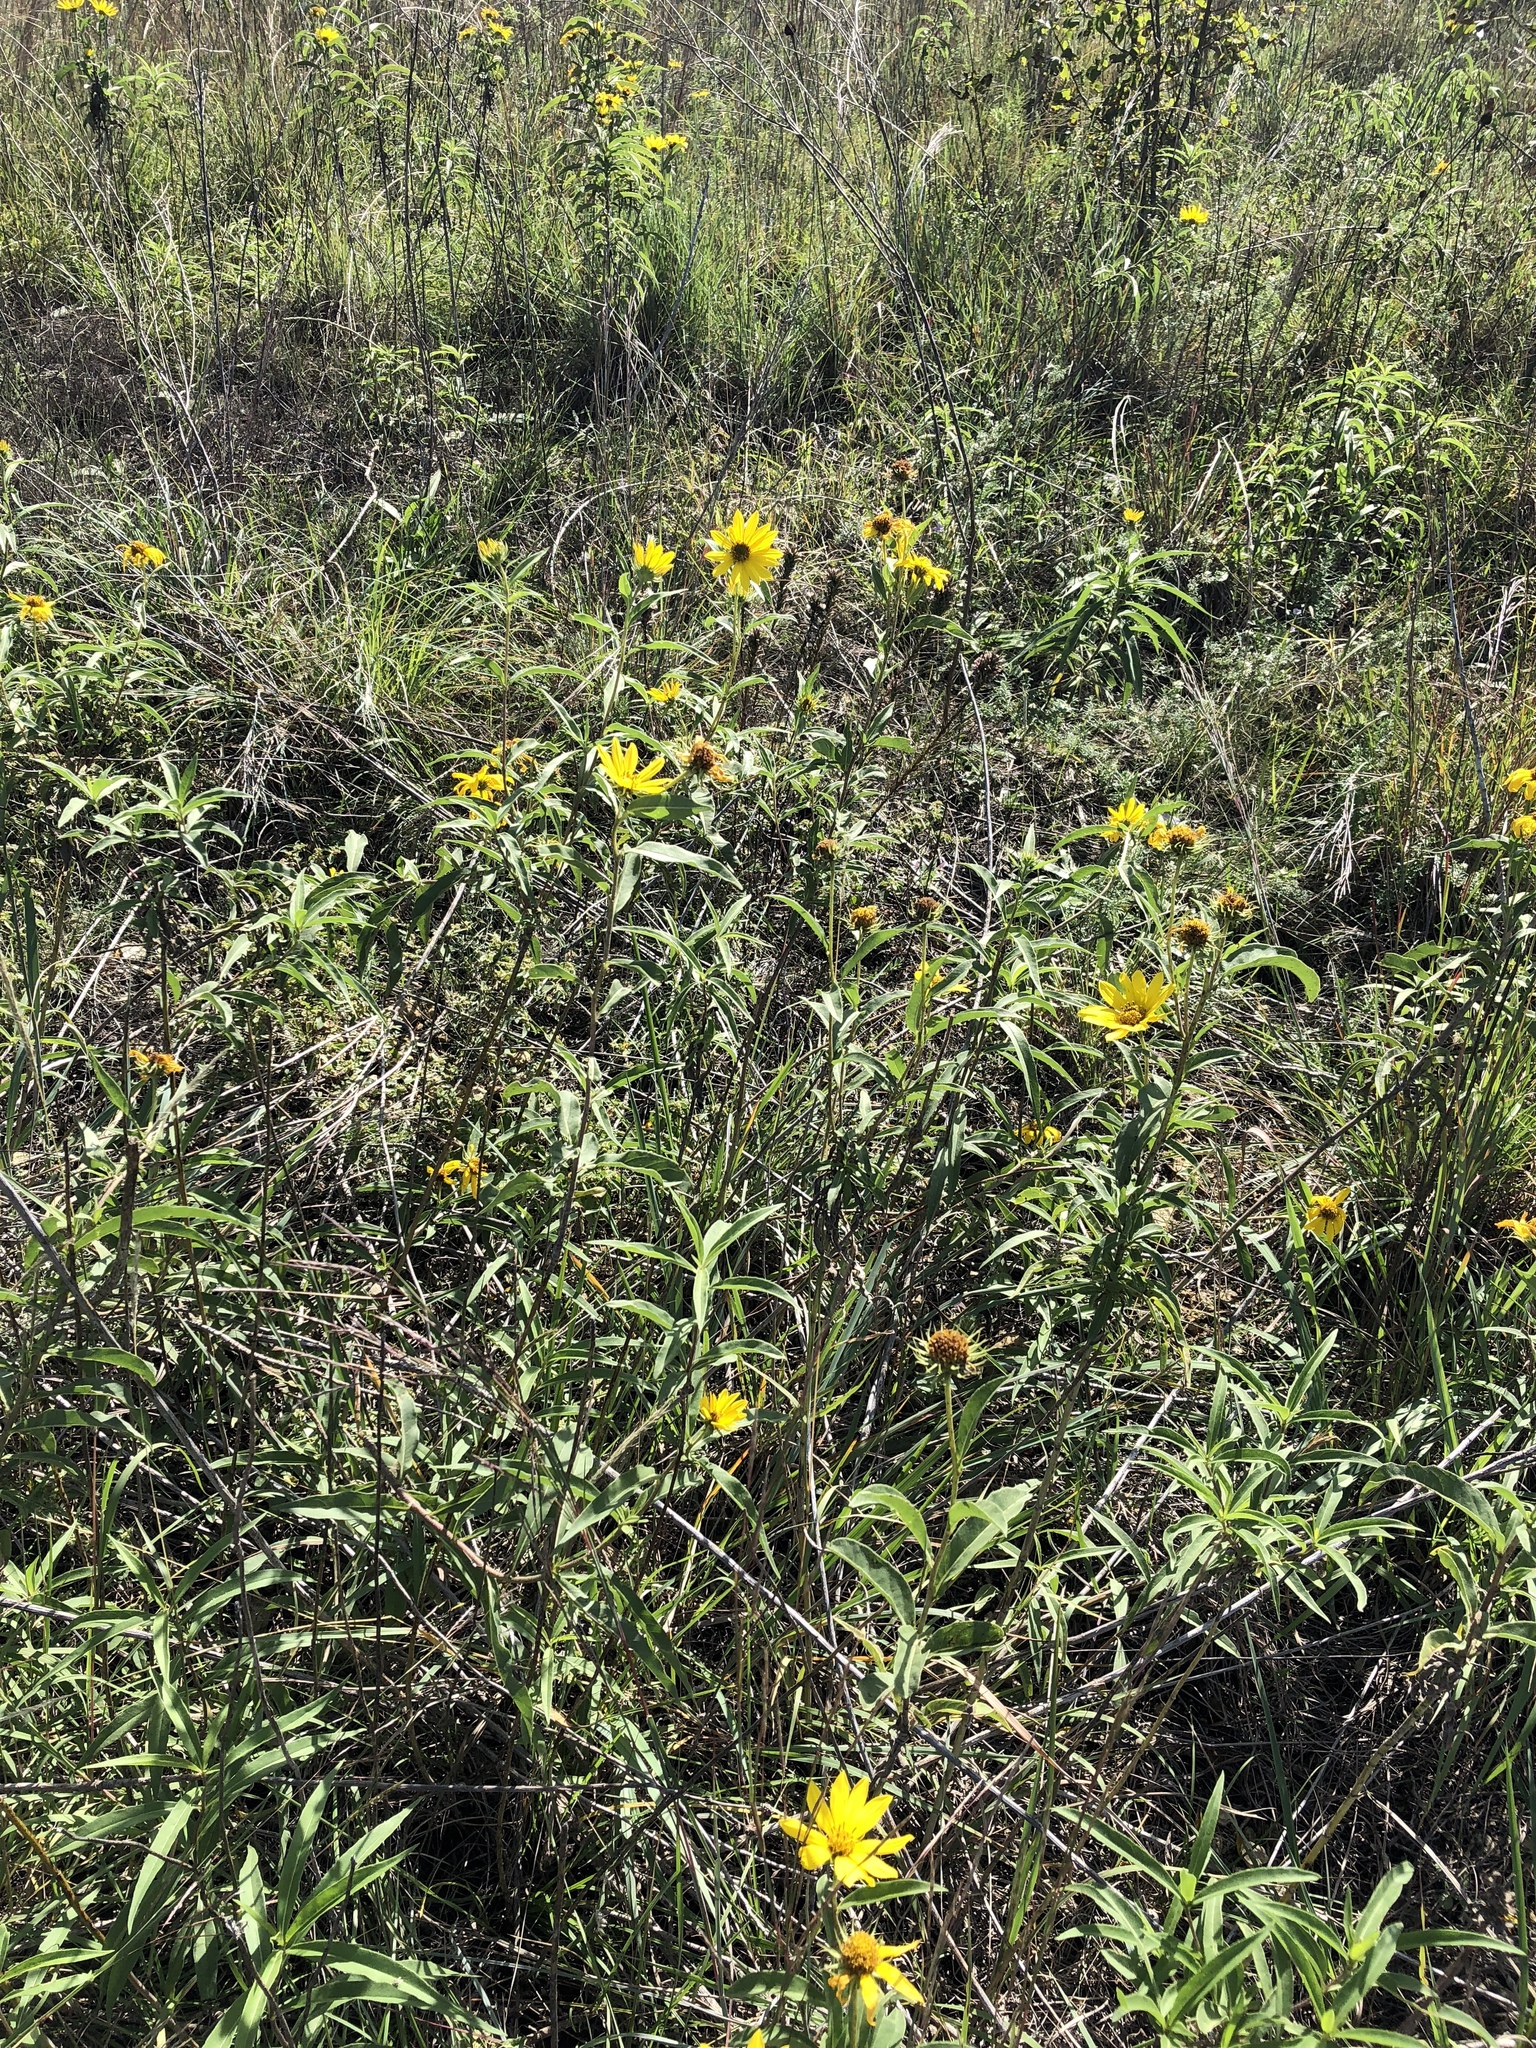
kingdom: Plantae
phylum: Tracheophyta
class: Magnoliopsida
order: Asterales
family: Asteraceae
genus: Helianthus
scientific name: Helianthus maximiliani
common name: Maximilian's sunflower
